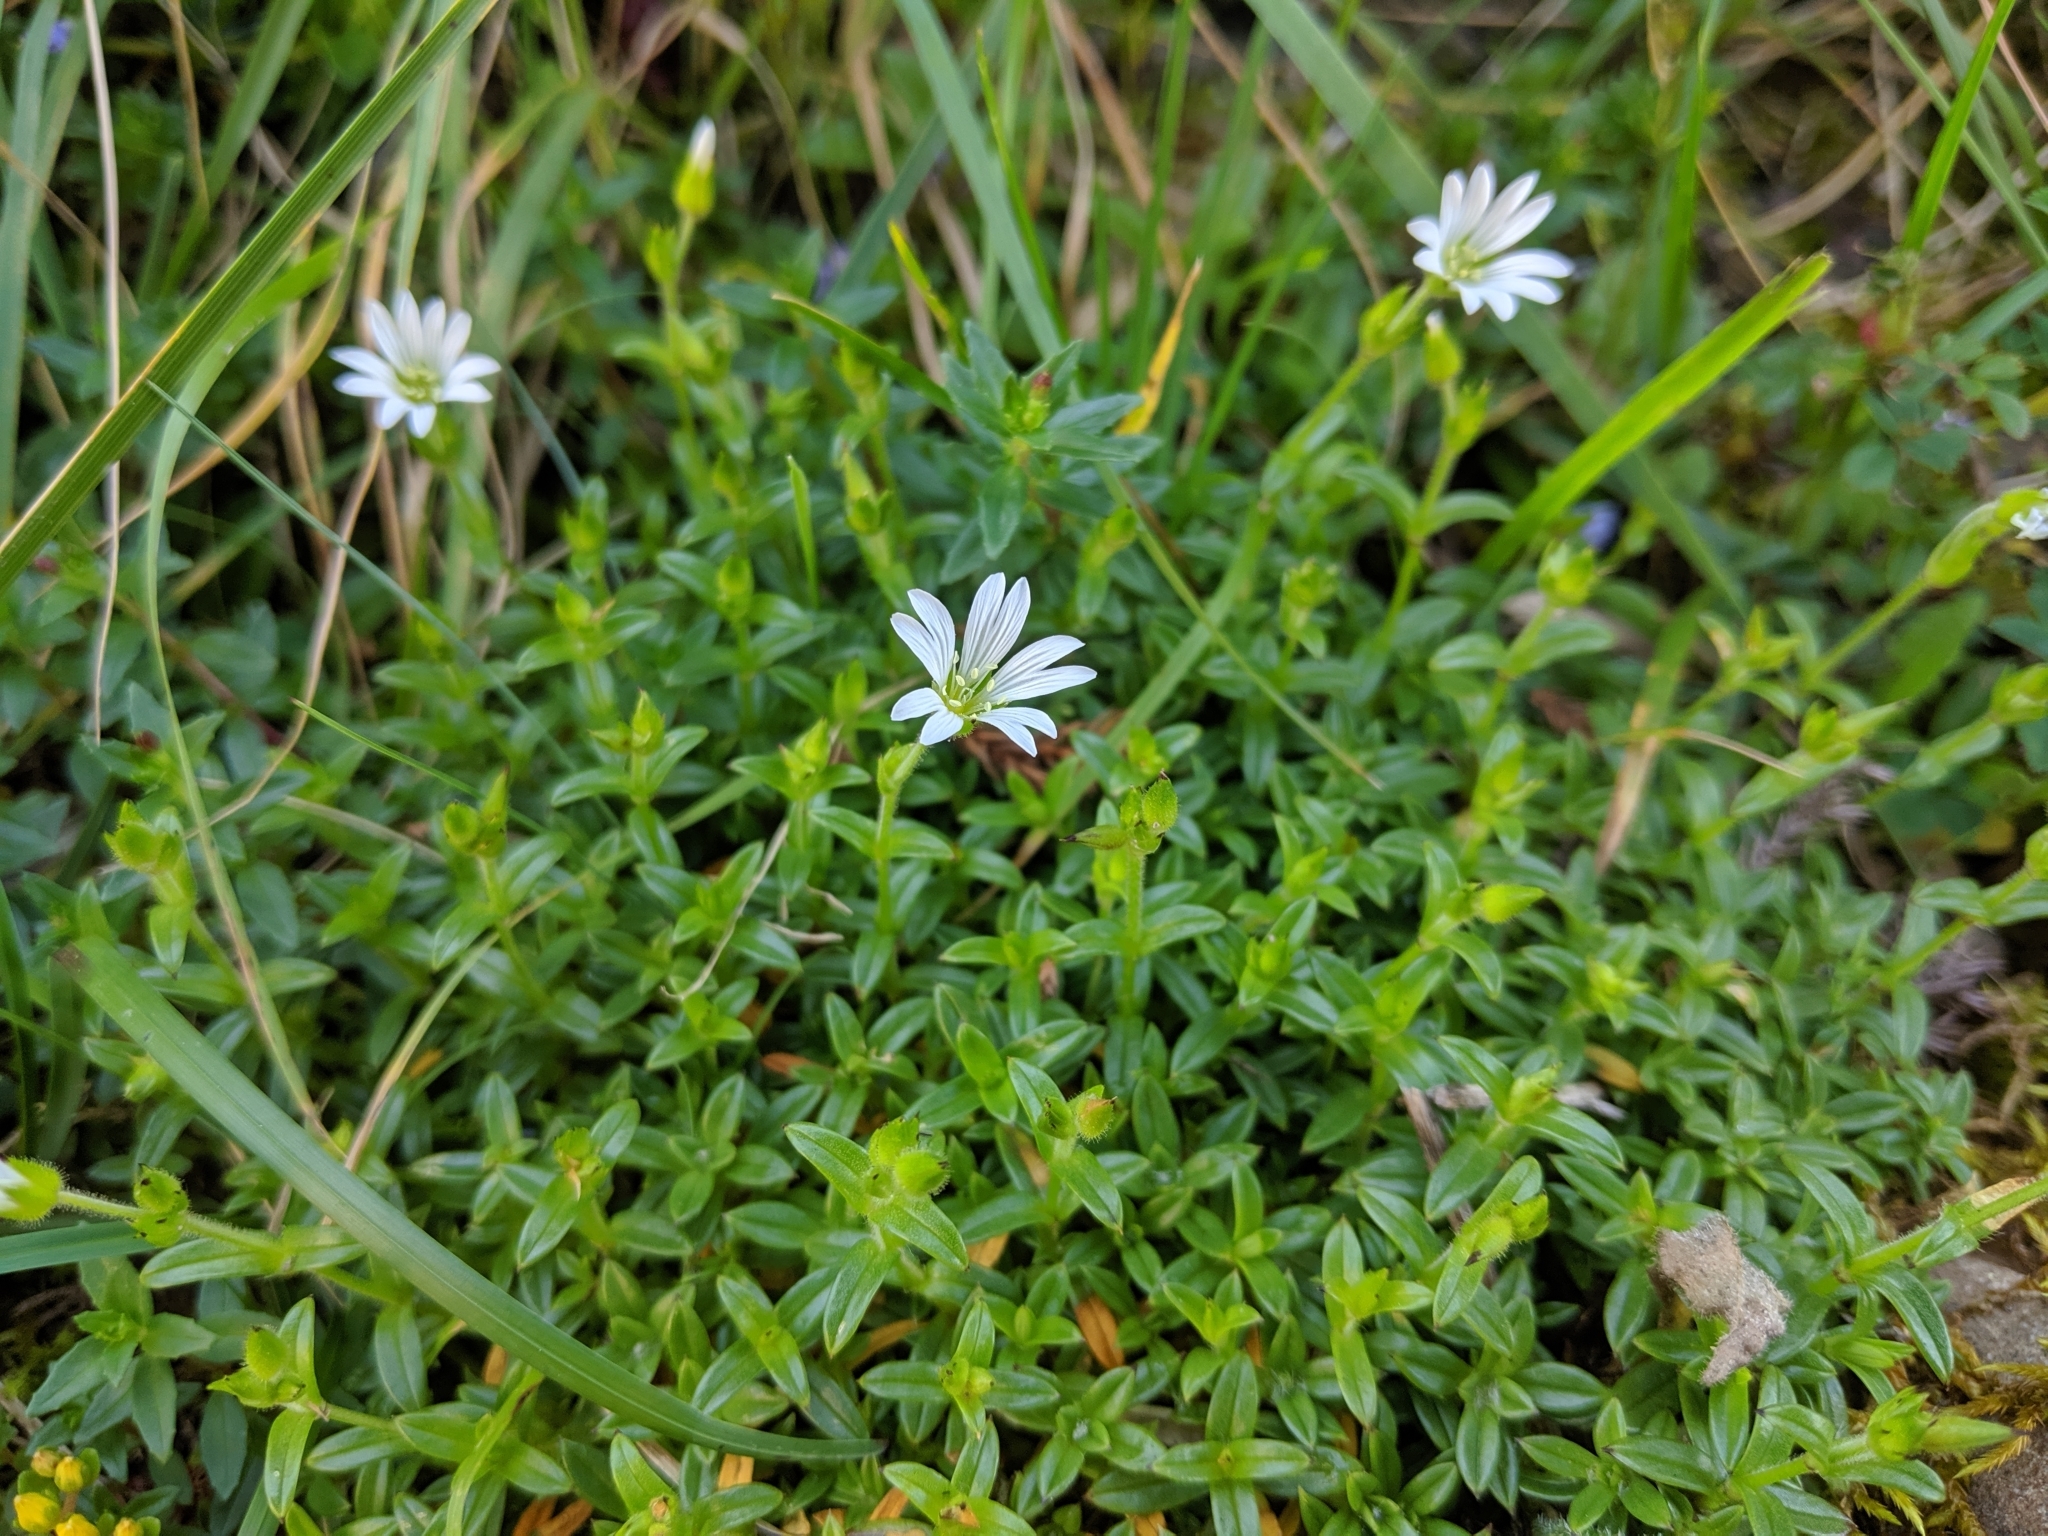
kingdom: Plantae
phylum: Tracheophyta
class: Magnoliopsida
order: Caryophyllales
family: Caryophyllaceae
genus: Cerastium
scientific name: Cerastium morrisonense
